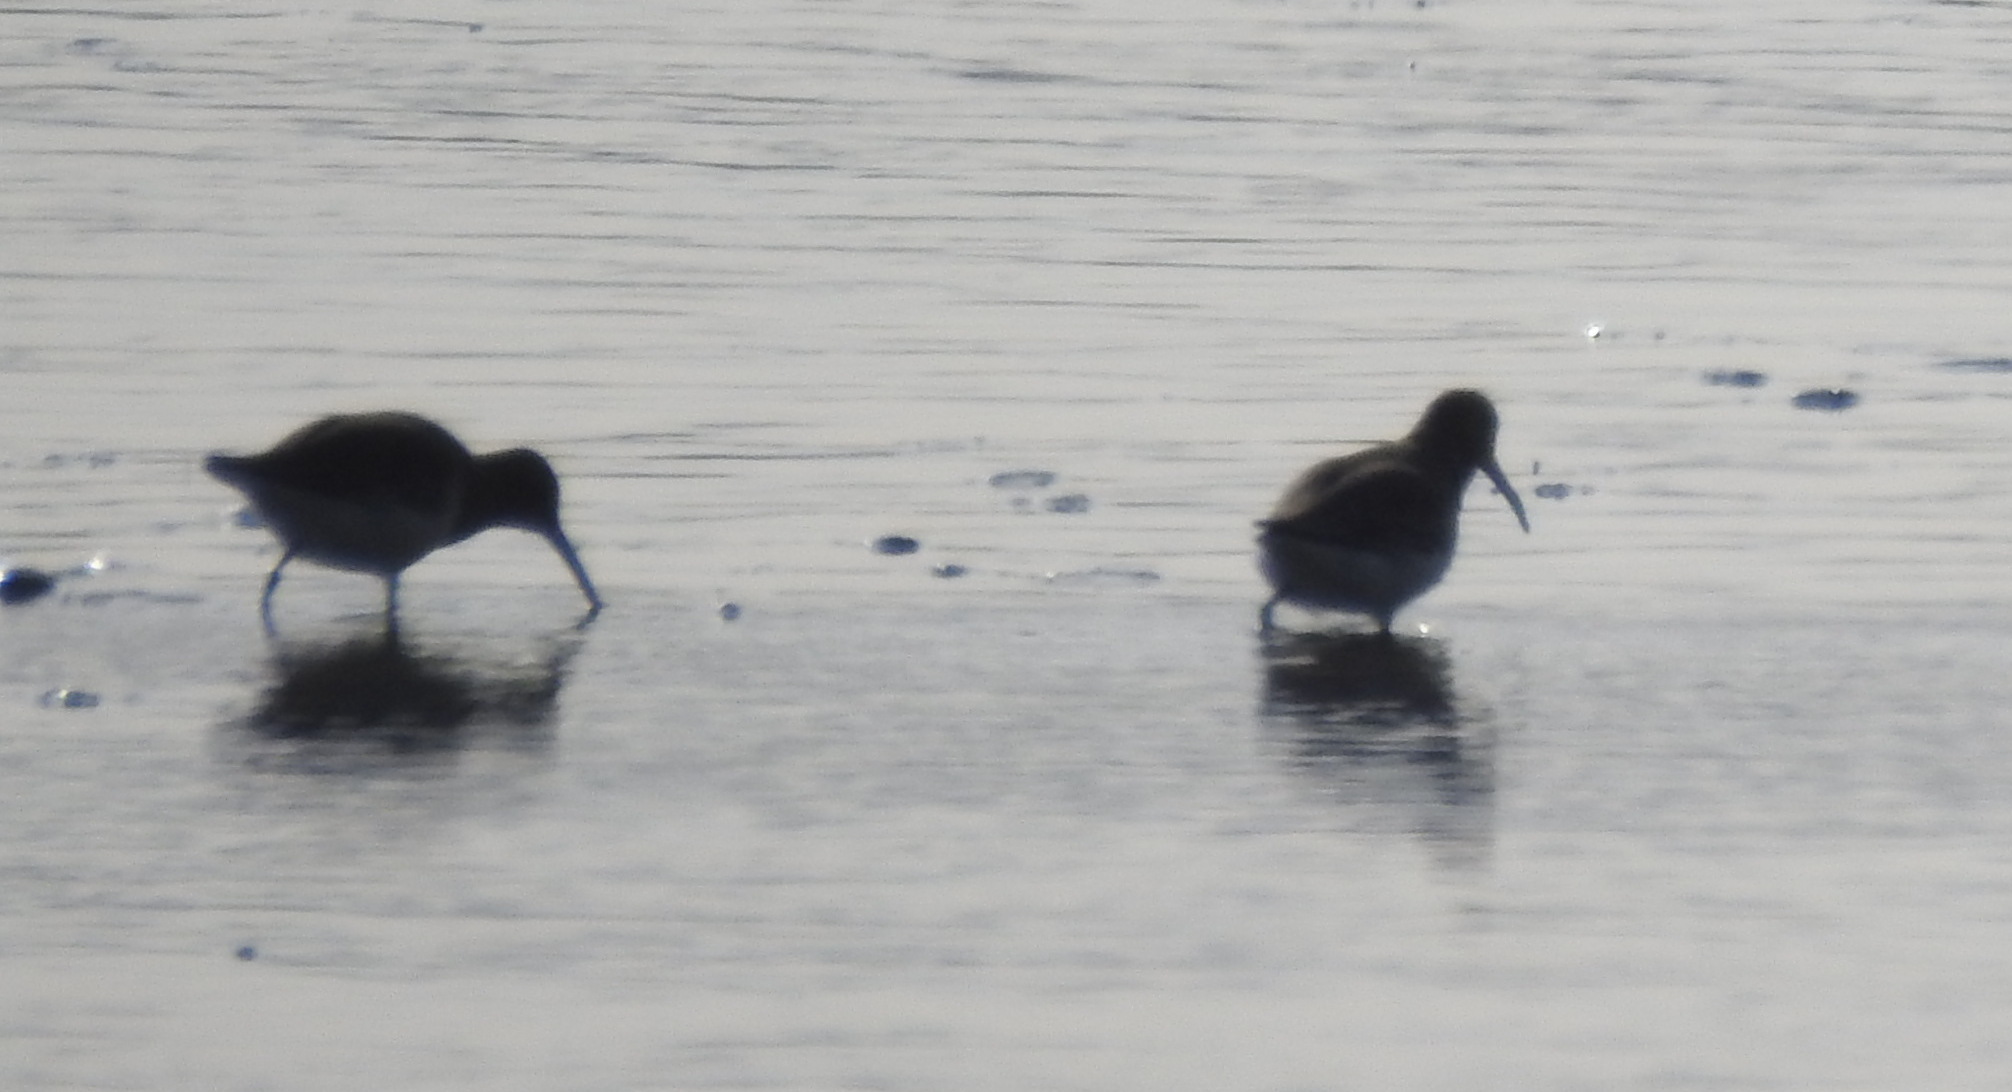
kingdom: Animalia
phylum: Chordata
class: Aves
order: Charadriiformes
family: Scolopacidae
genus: Calidris
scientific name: Calidris alpina
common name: Dunlin
